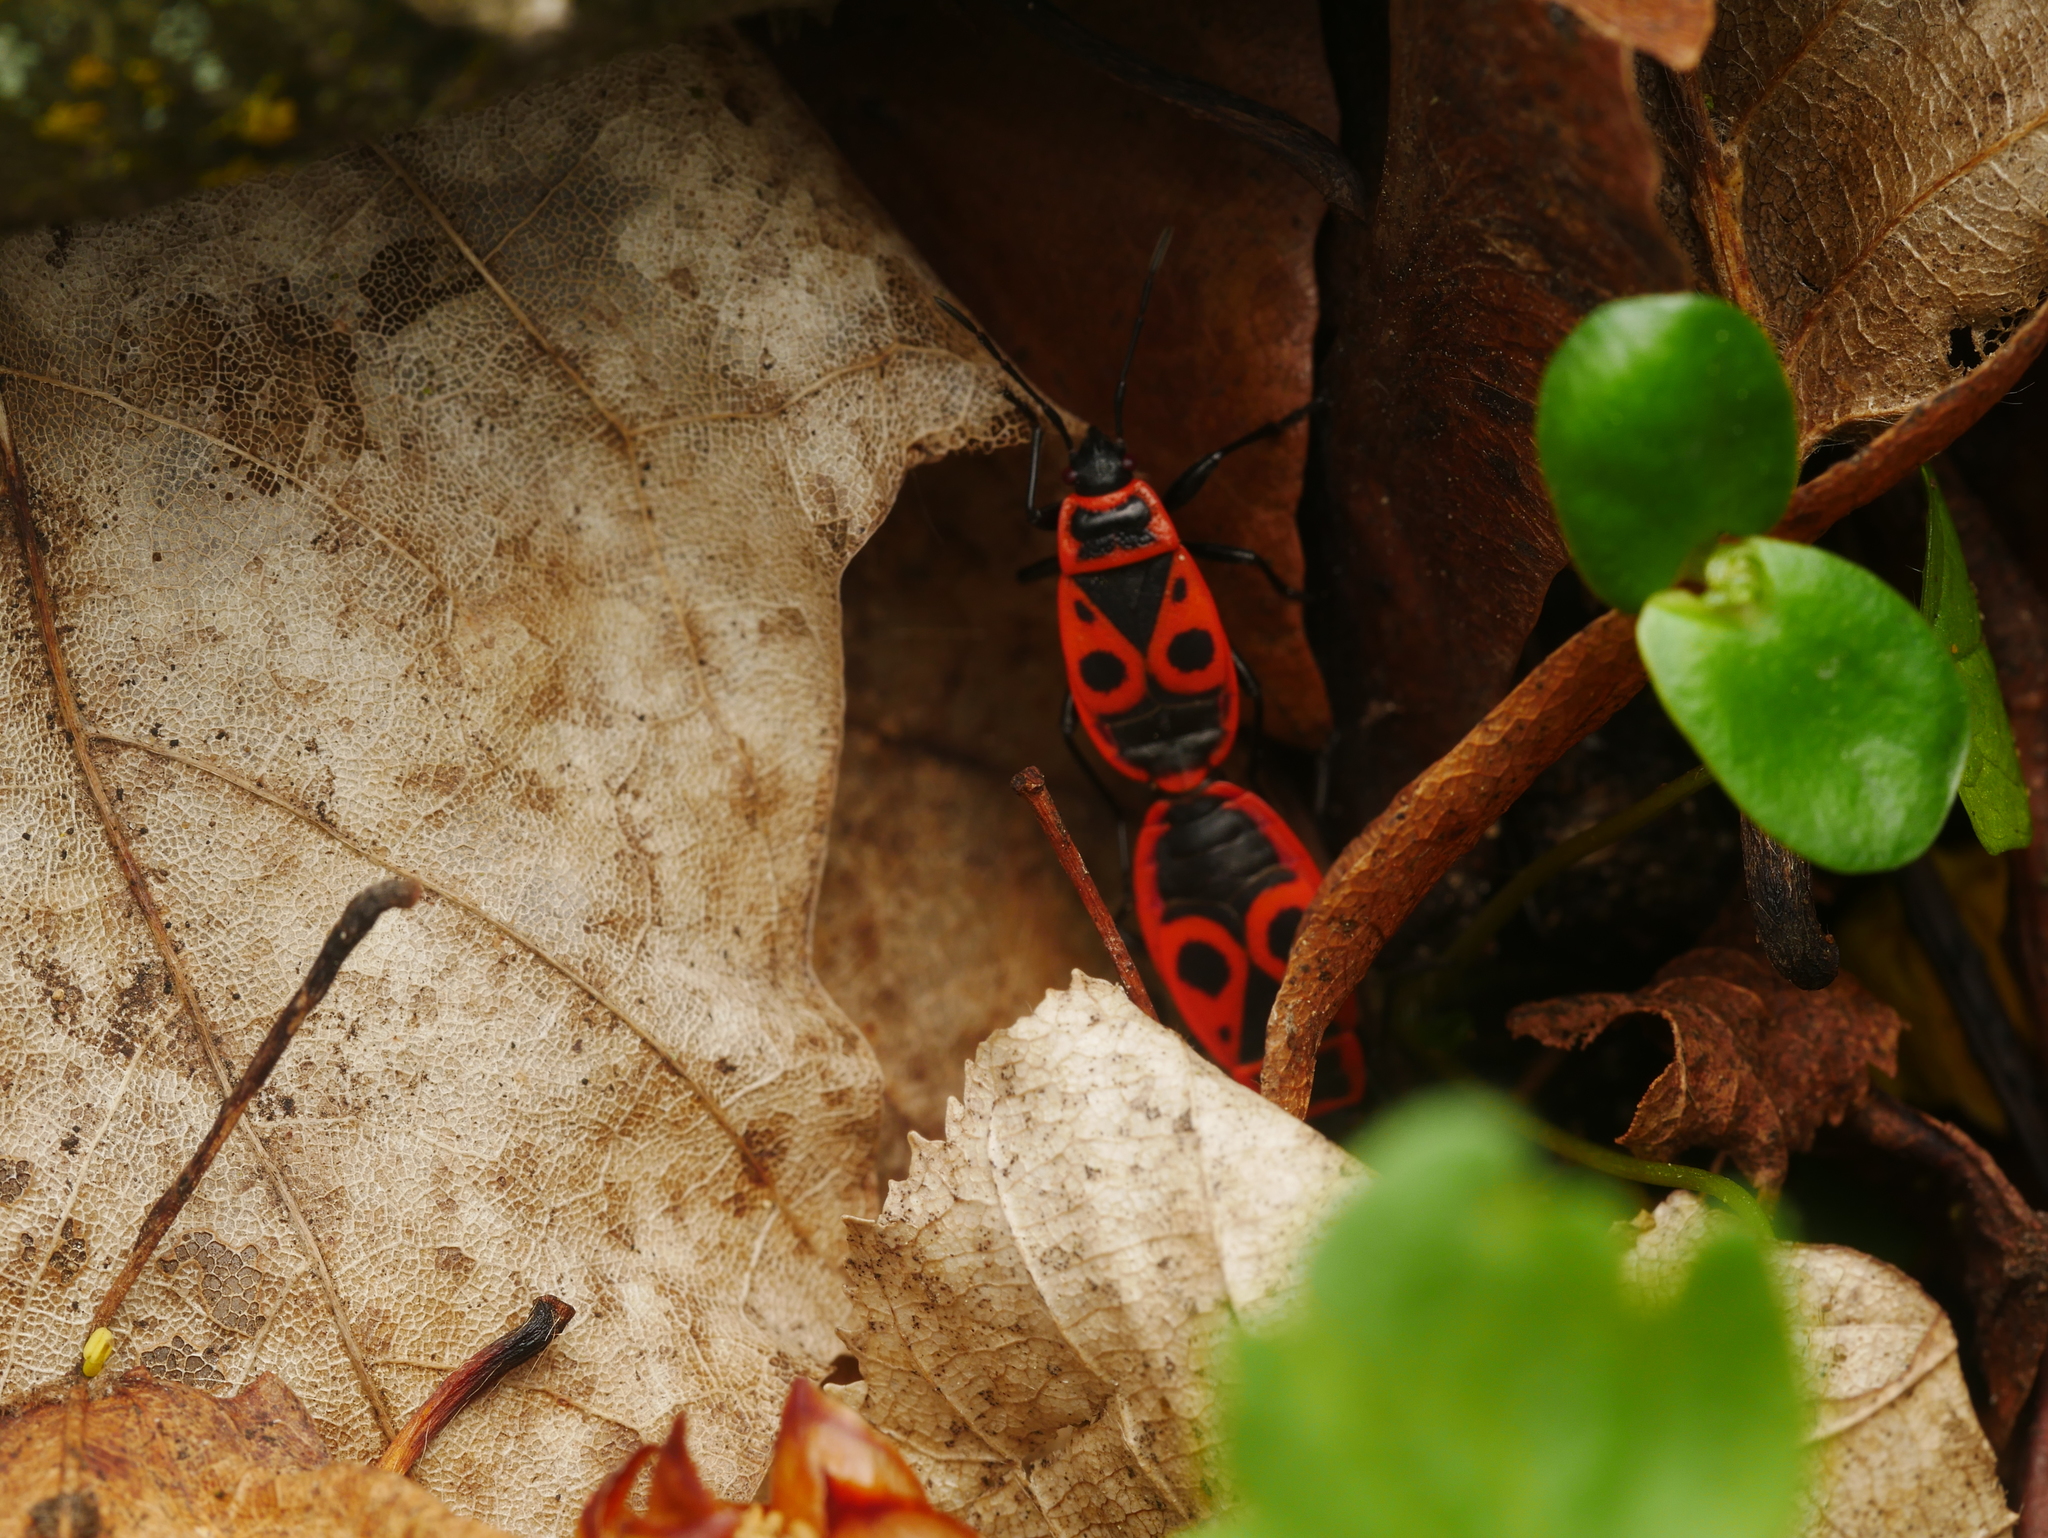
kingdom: Animalia
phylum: Arthropoda
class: Insecta
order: Hemiptera
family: Pyrrhocoridae
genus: Pyrrhocoris
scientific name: Pyrrhocoris apterus
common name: Firebug
